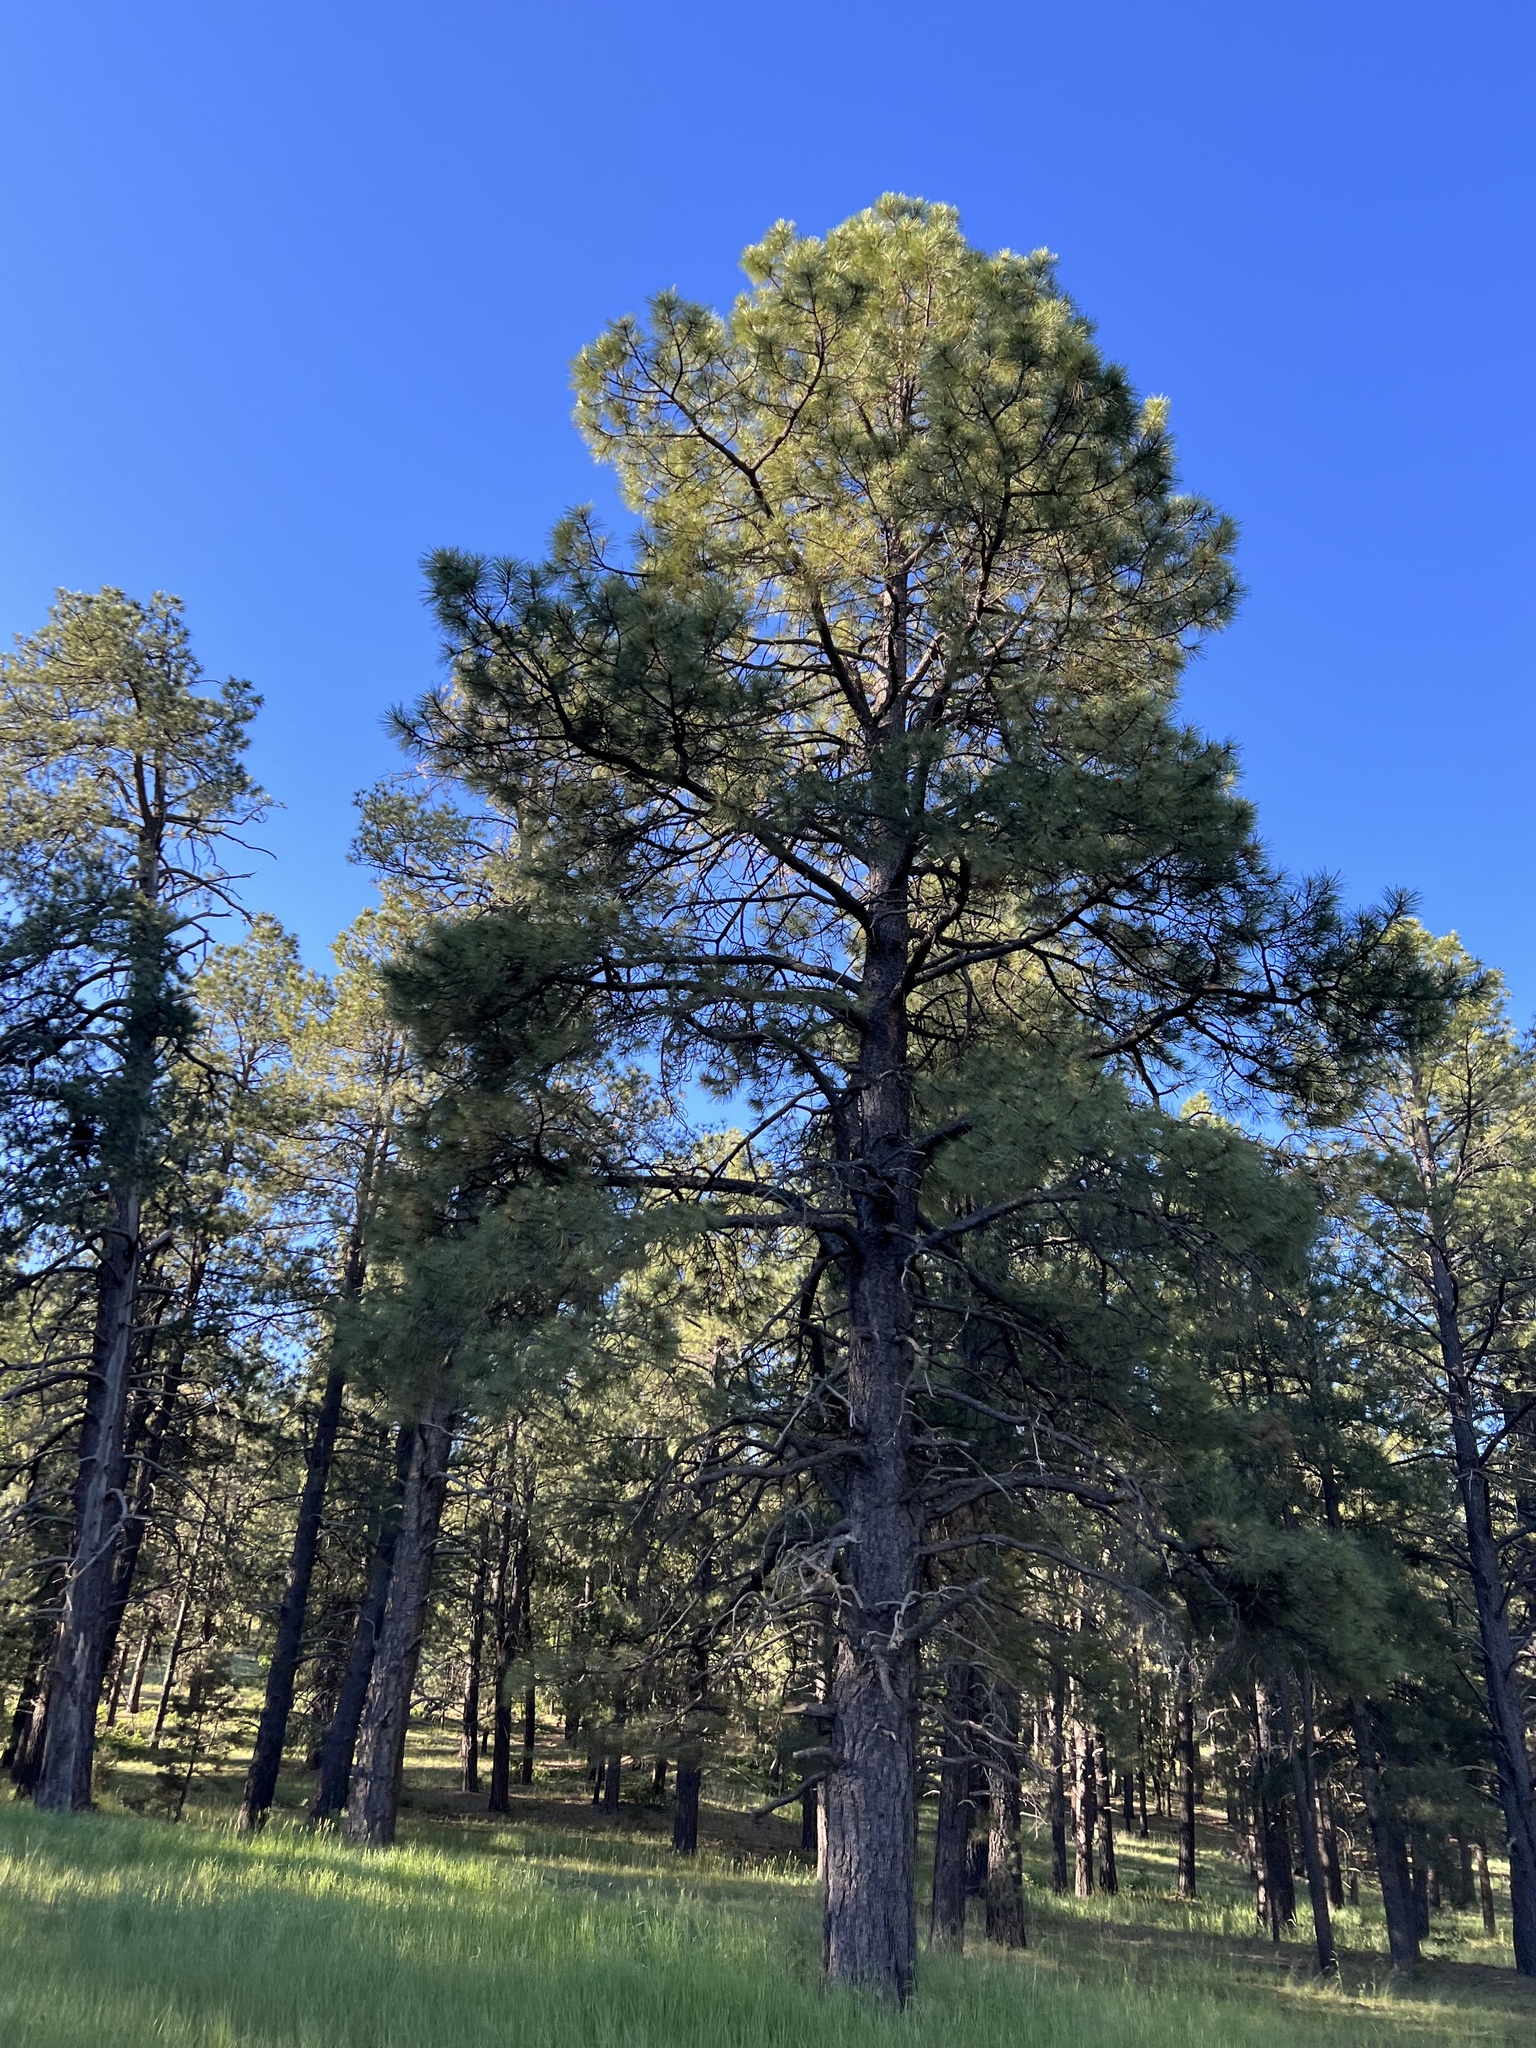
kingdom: Plantae
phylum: Tracheophyta
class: Pinopsida
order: Pinales
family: Pinaceae
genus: Pinus
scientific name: Pinus ponderosa
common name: Western yellow-pine
